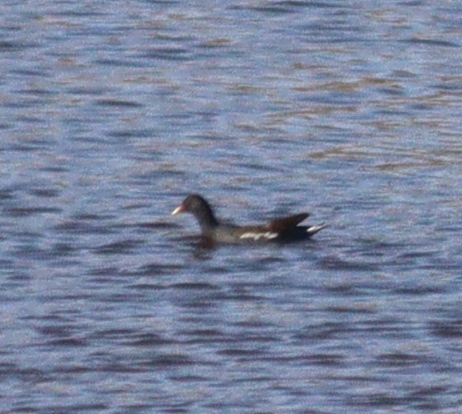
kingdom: Animalia
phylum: Chordata
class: Aves
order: Gruiformes
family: Rallidae
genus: Gallinula
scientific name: Gallinula chloropus
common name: Common moorhen
